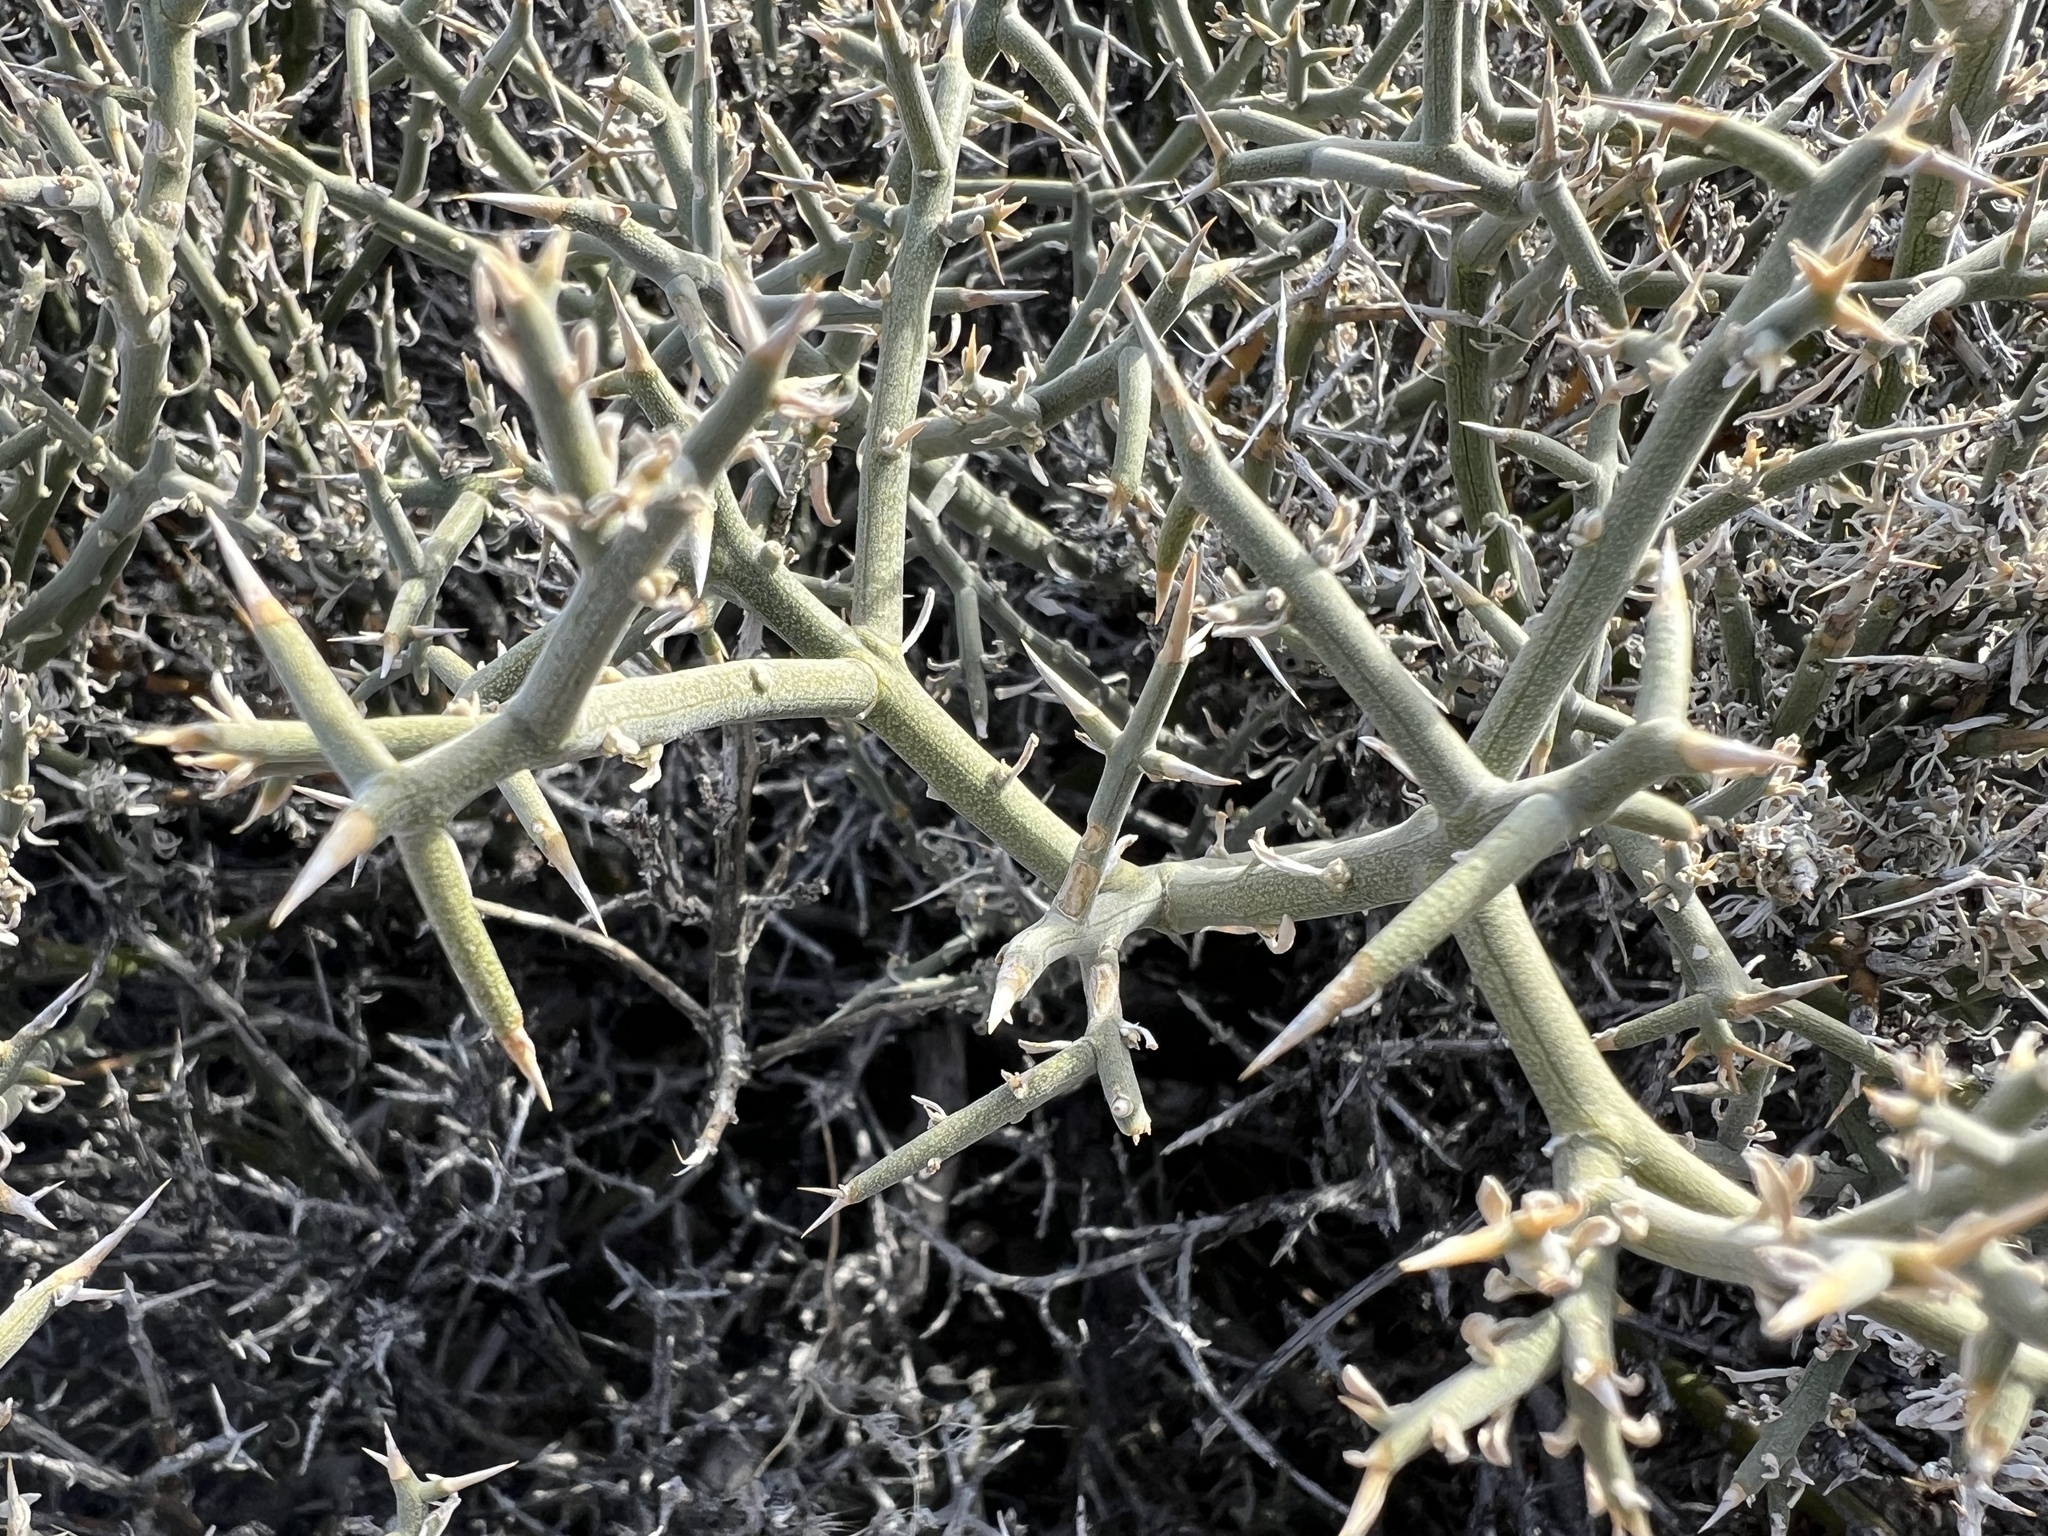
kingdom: Plantae
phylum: Tracheophyta
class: Magnoliopsida
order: Lamiales
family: Oleaceae
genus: Menodora
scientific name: Menodora spinescens
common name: Spiny menodora
